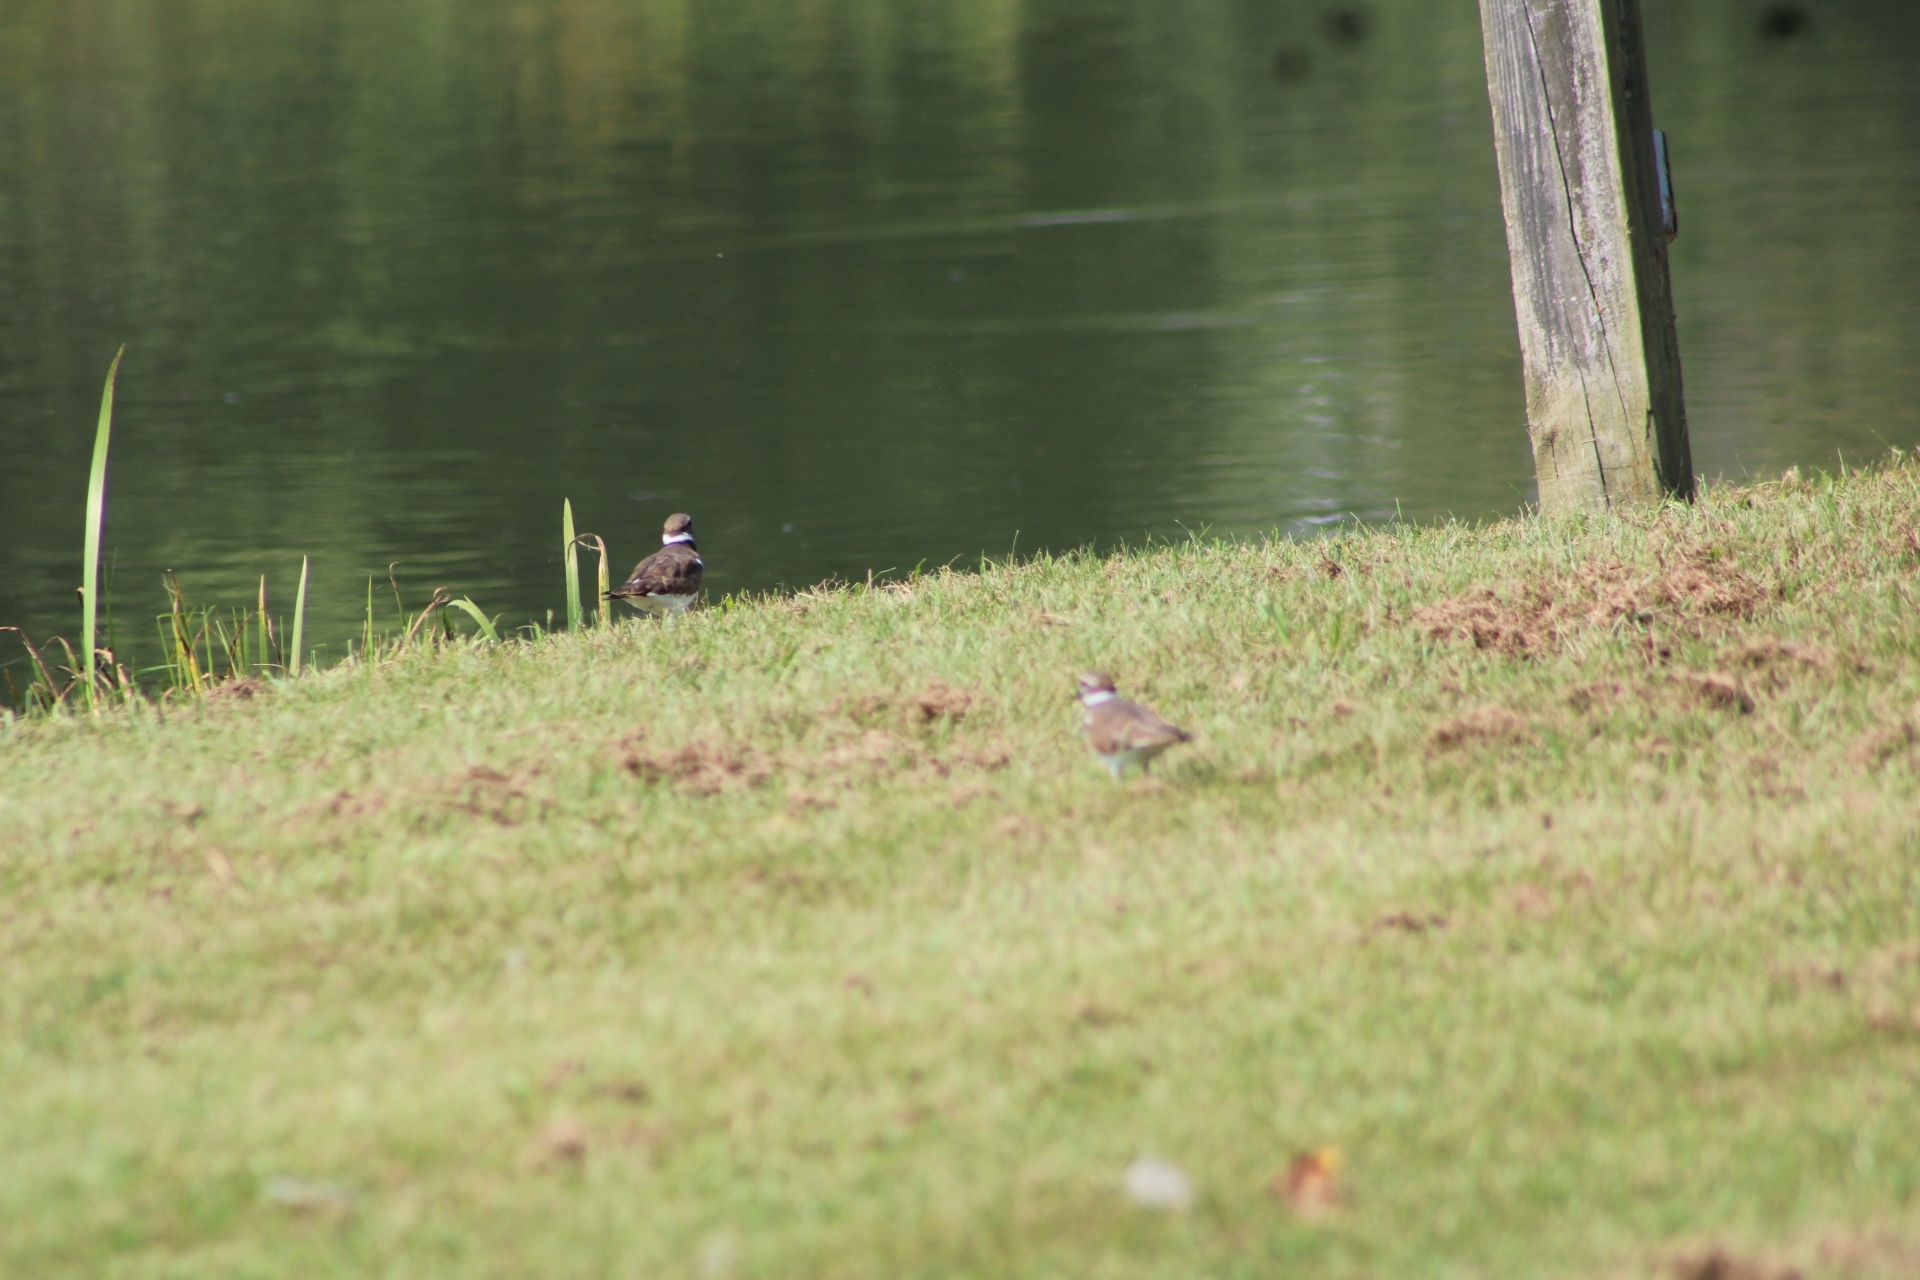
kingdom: Animalia
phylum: Chordata
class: Aves
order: Charadriiformes
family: Charadriidae
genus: Charadrius
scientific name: Charadrius vociferus
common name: Killdeer
